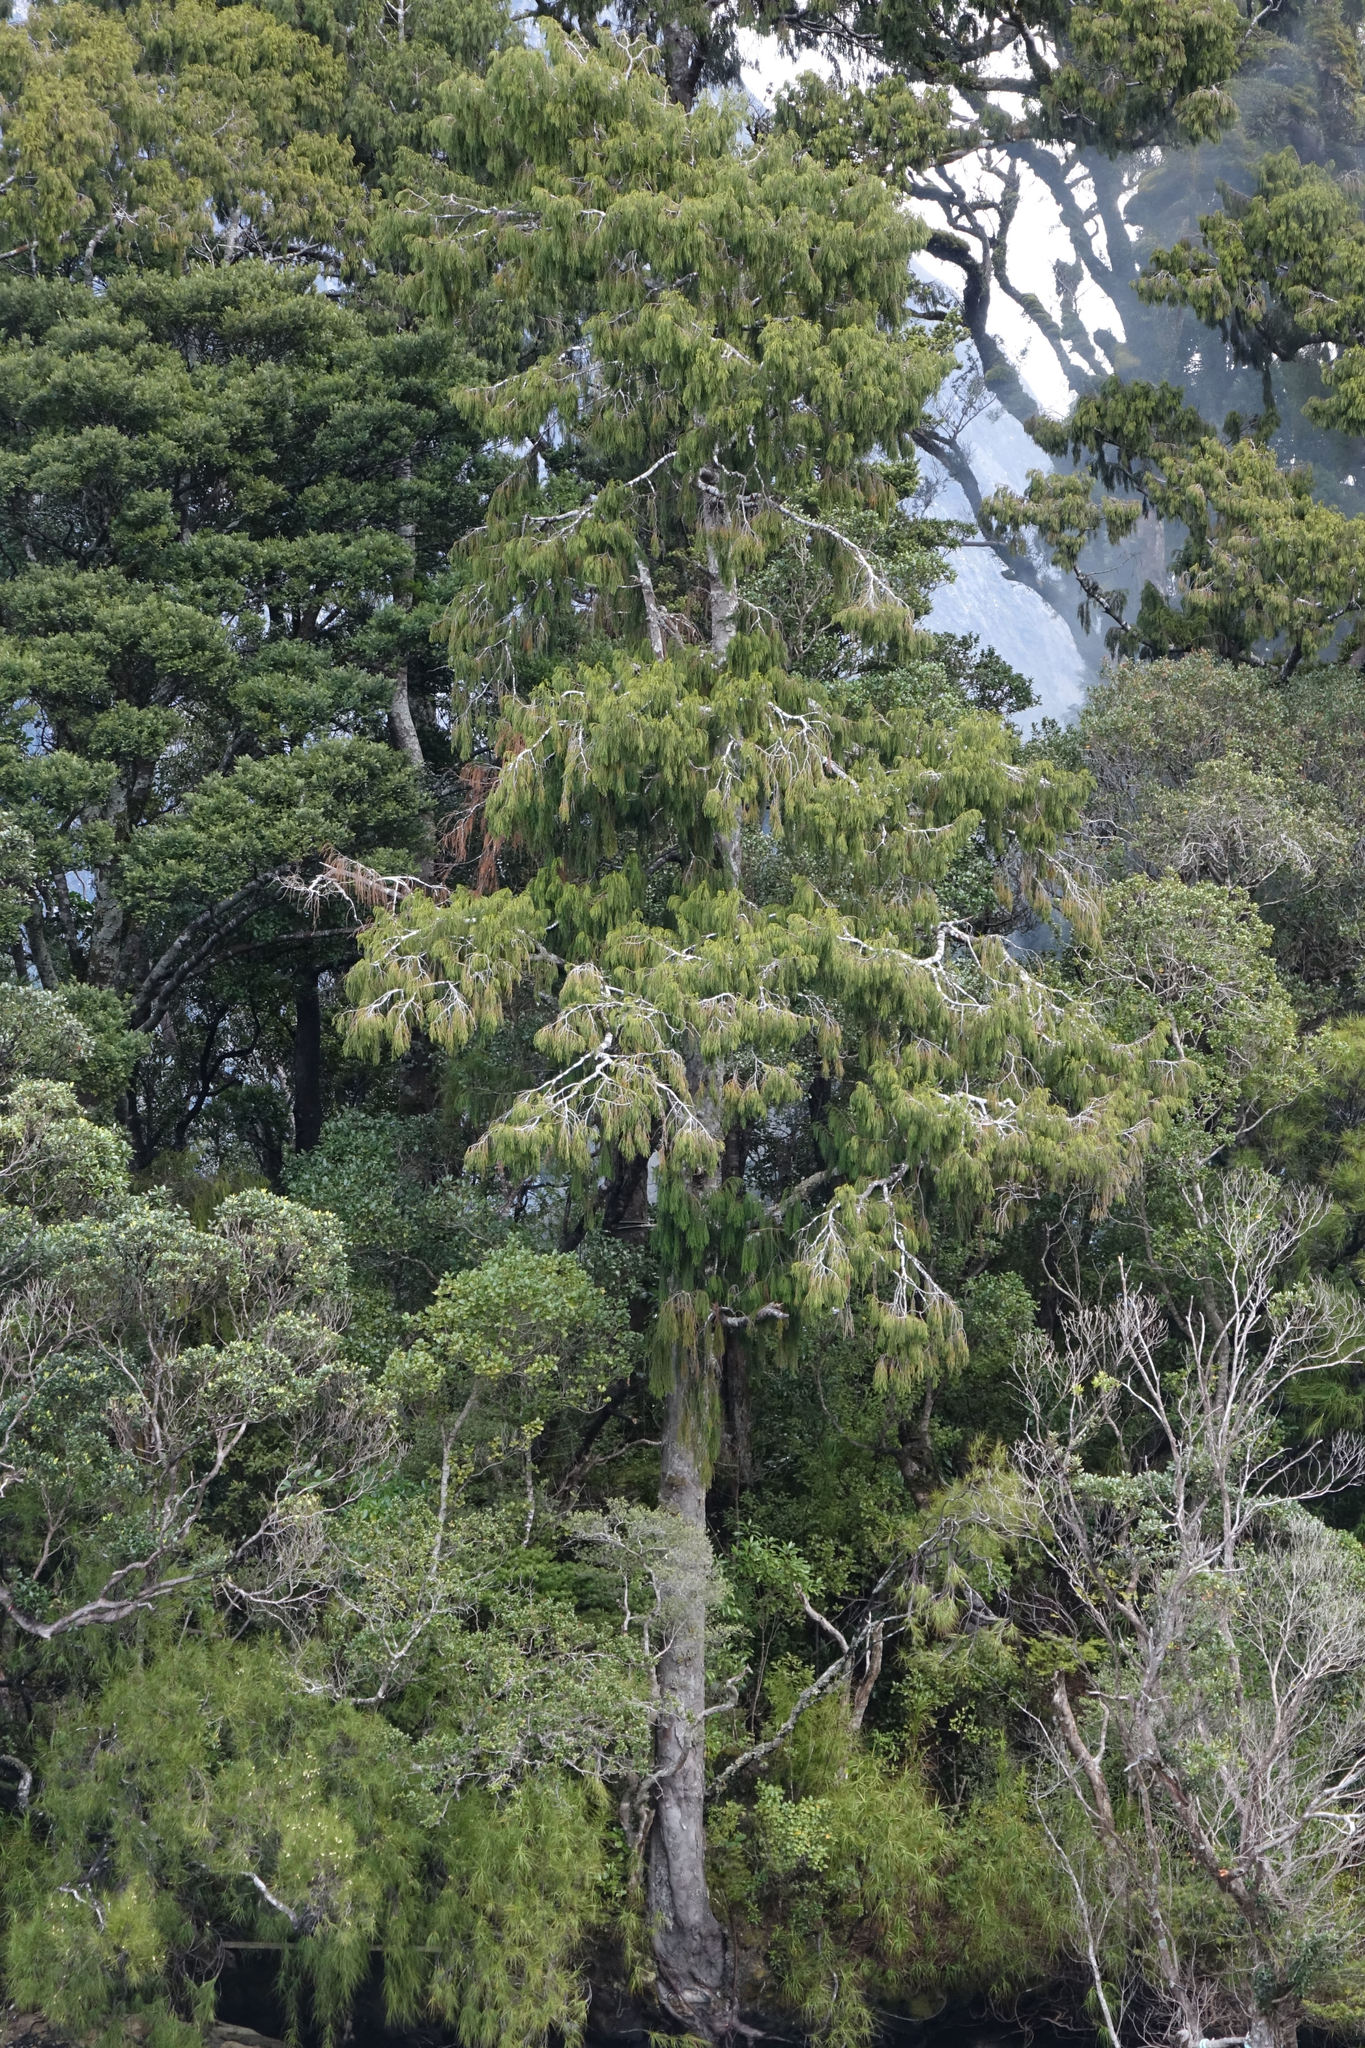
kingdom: Plantae
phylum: Tracheophyta
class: Pinopsida
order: Pinales
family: Podocarpaceae
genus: Dacrydium
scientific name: Dacrydium cupressinum
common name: Red pine
